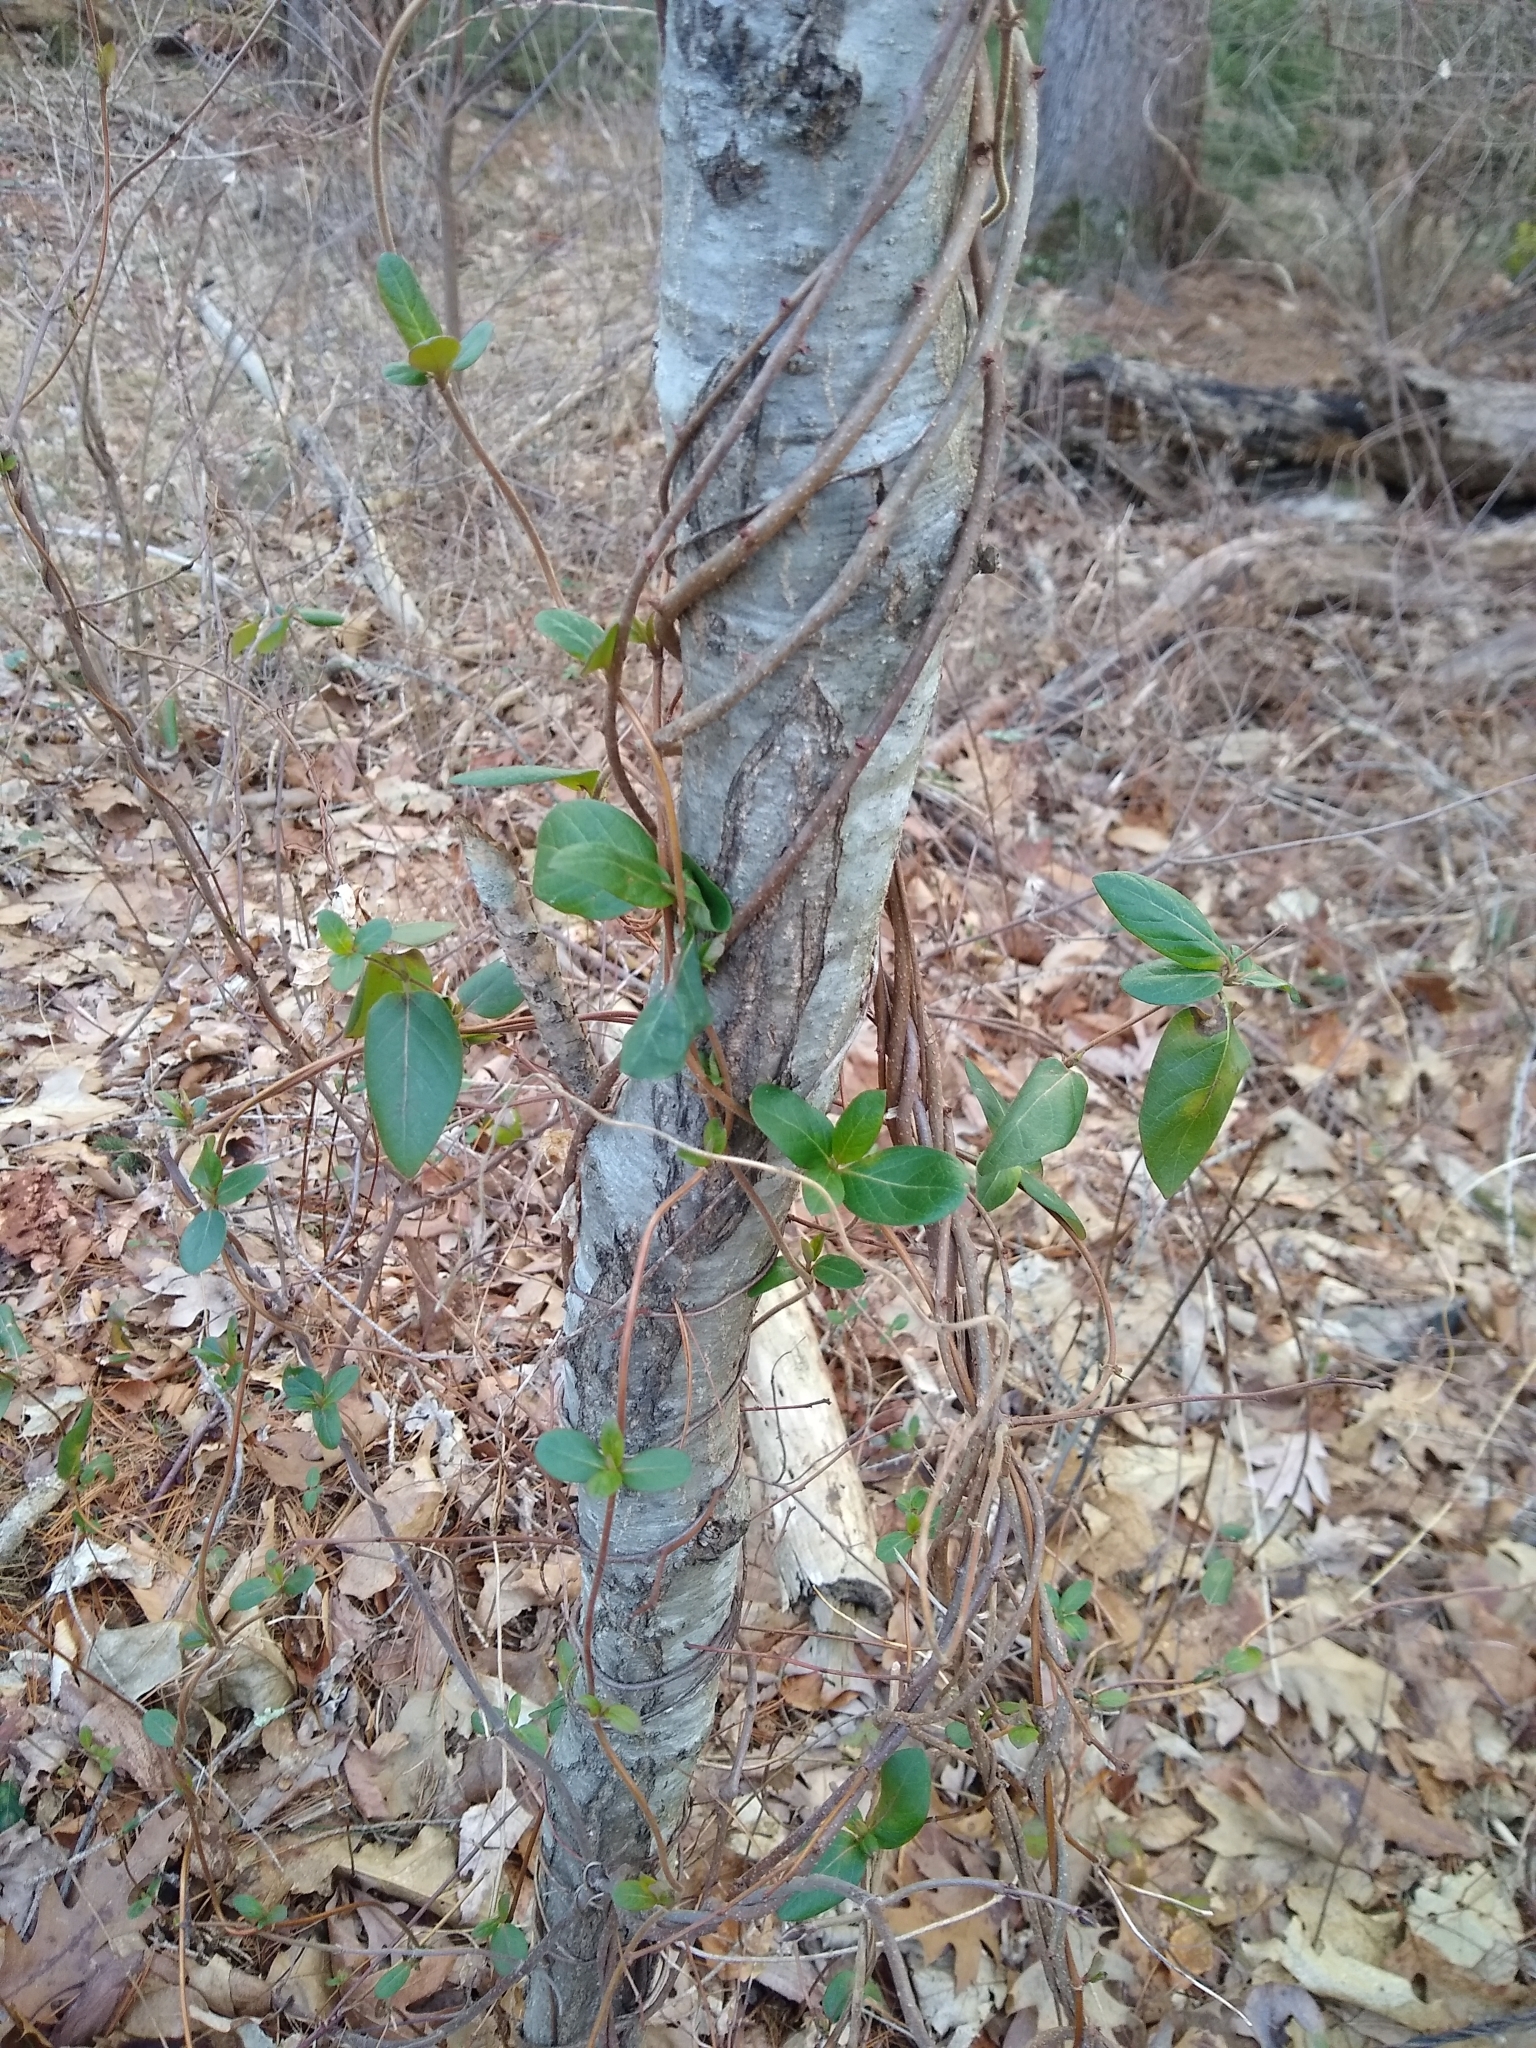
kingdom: Plantae
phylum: Tracheophyta
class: Magnoliopsida
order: Dipsacales
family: Caprifoliaceae
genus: Lonicera
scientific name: Lonicera japonica
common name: Japanese honeysuckle
